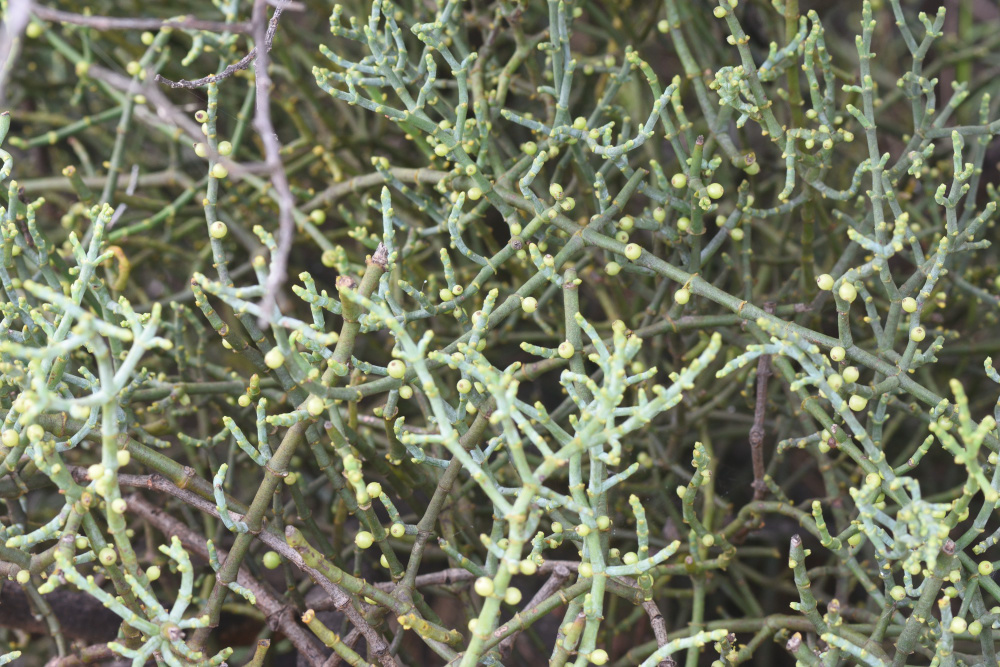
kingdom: Plantae
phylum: Tracheophyta
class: Magnoliopsida
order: Santalales
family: Viscaceae
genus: Viscum
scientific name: Viscum capense
